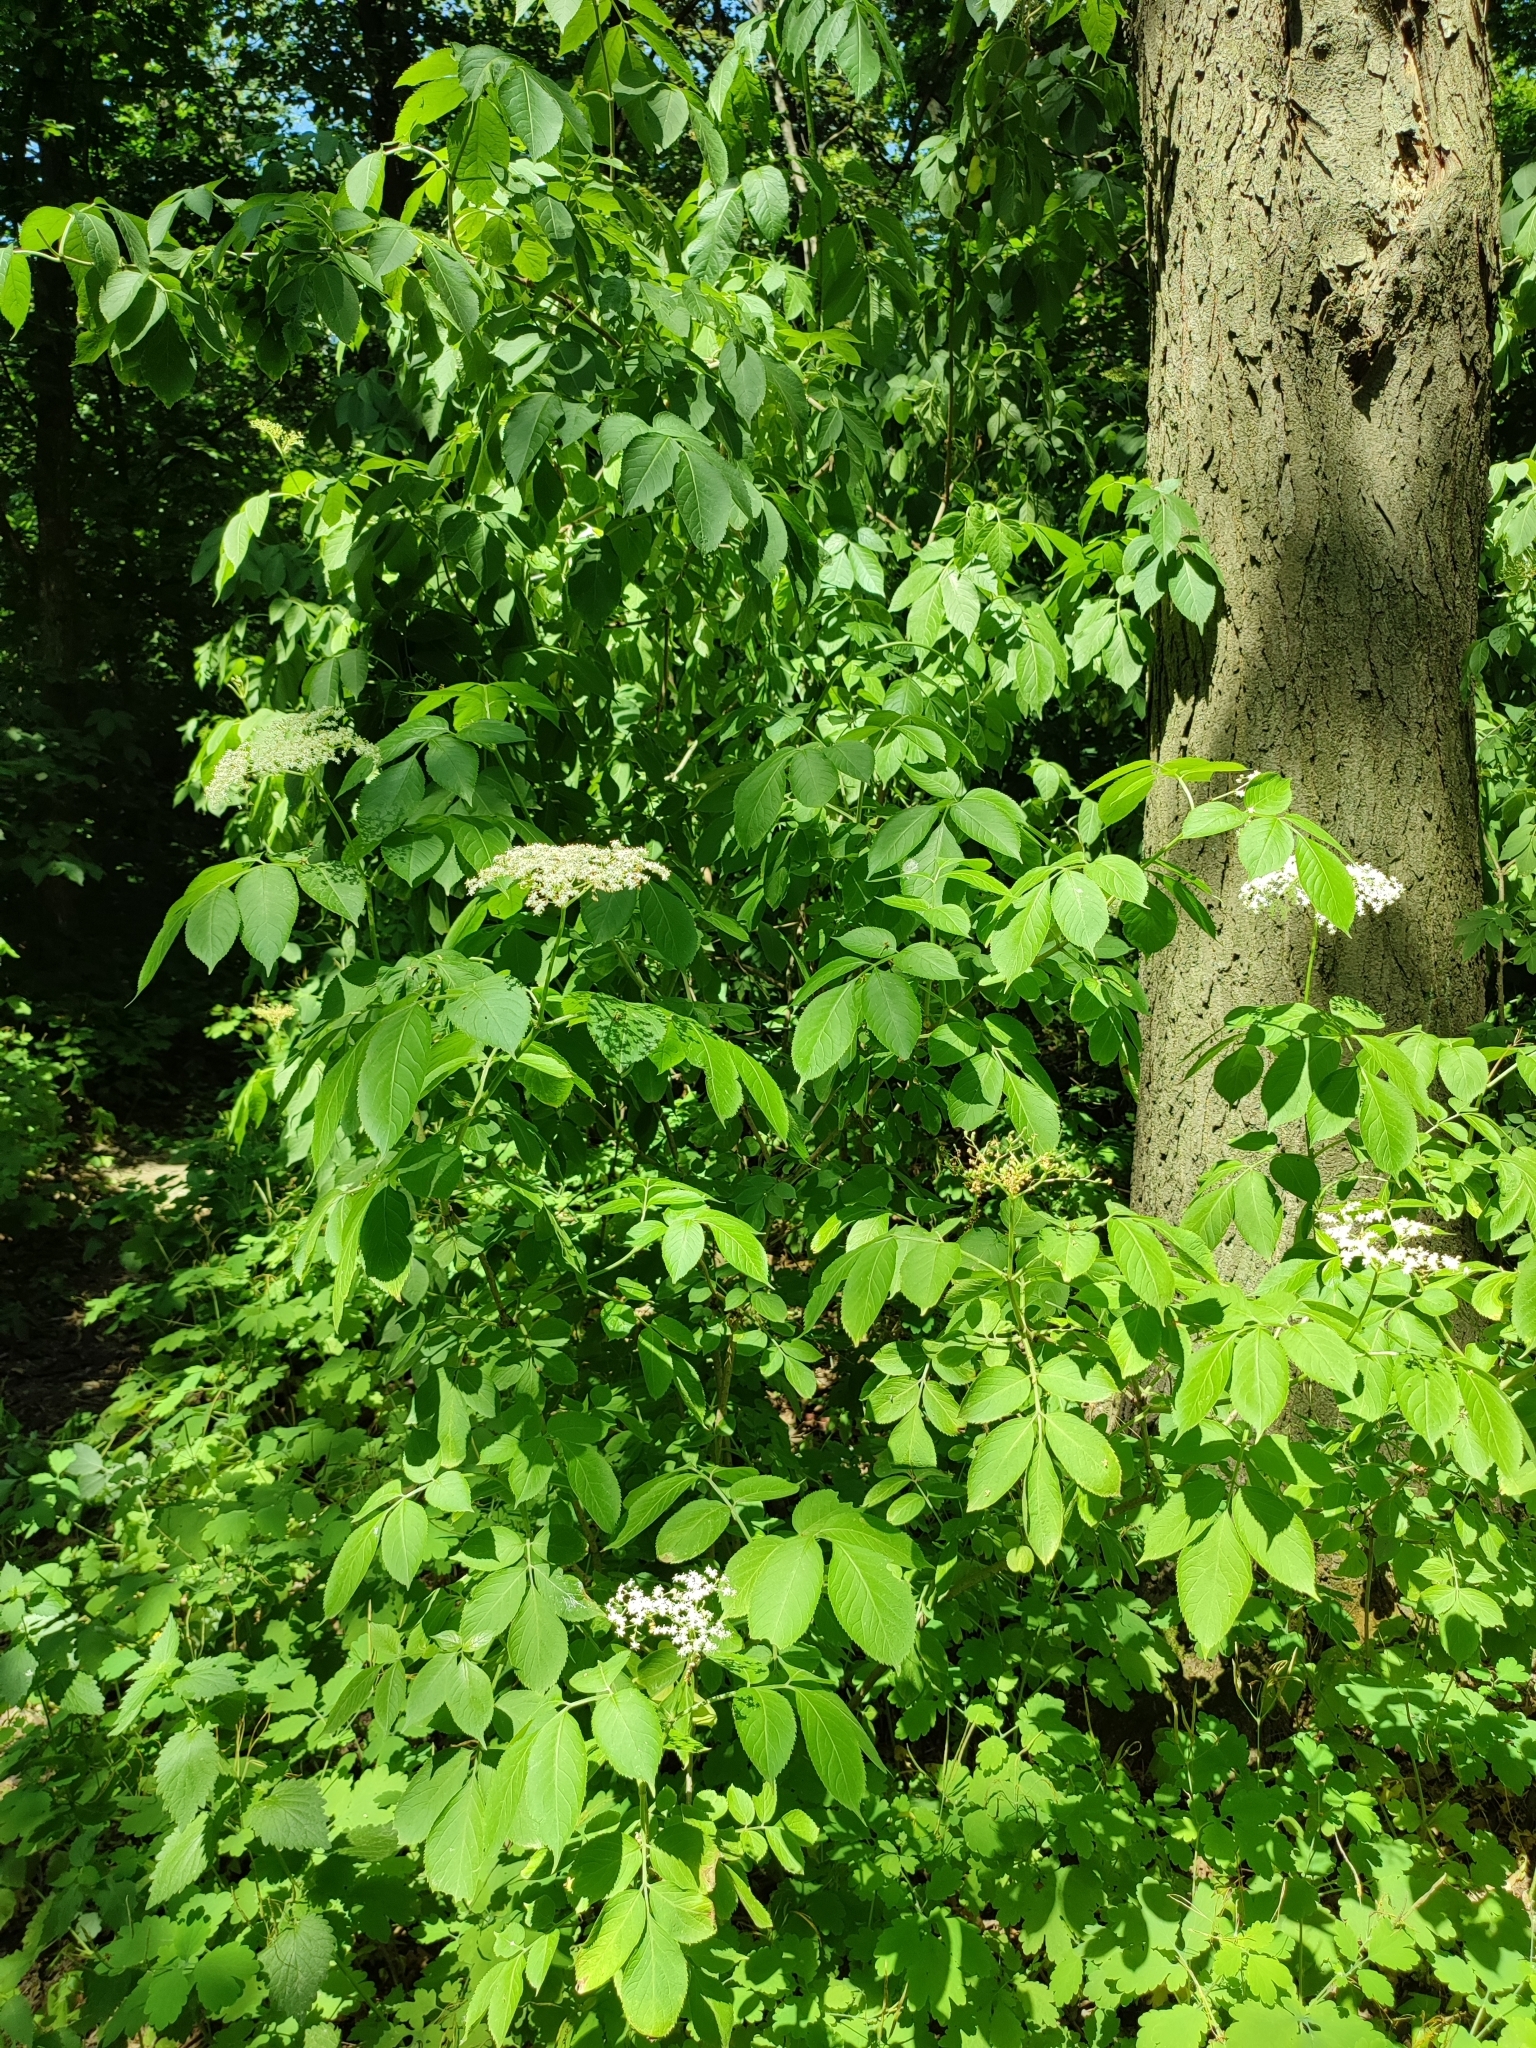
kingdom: Plantae
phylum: Tracheophyta
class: Magnoliopsida
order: Dipsacales
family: Viburnaceae
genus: Sambucus
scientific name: Sambucus nigra
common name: Elder
